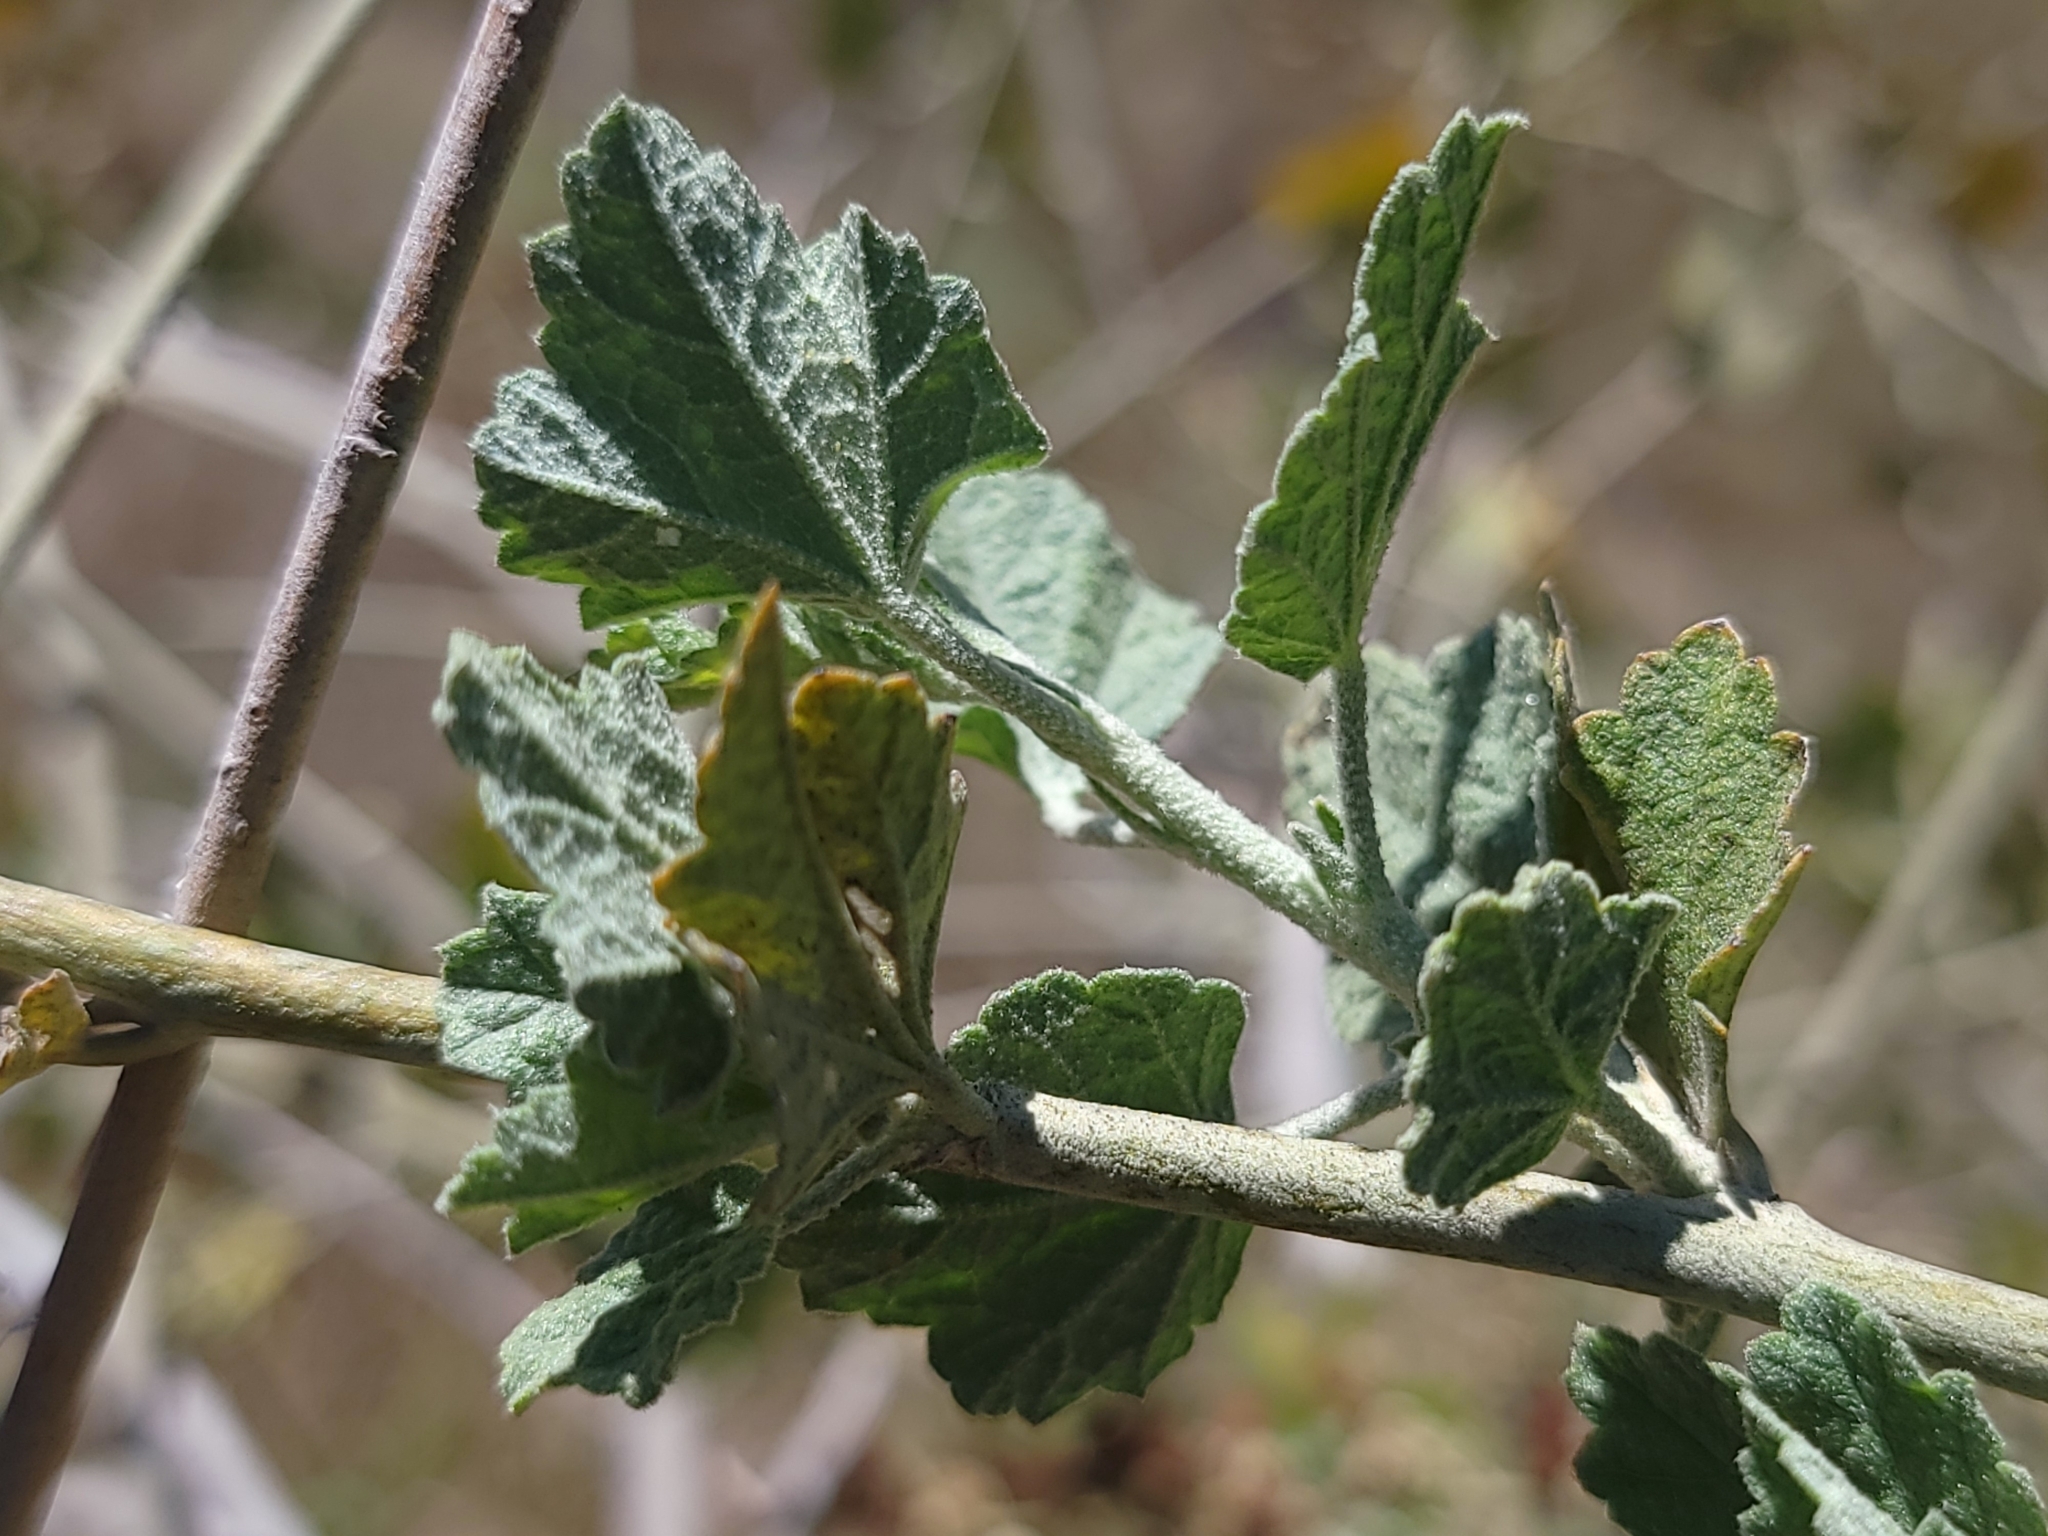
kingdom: Plantae
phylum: Tracheophyta
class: Magnoliopsida
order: Malvales
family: Malvaceae
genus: Malacothamnus
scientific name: Malacothamnus fasciculatus
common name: Sant cruz island bush-mallow
